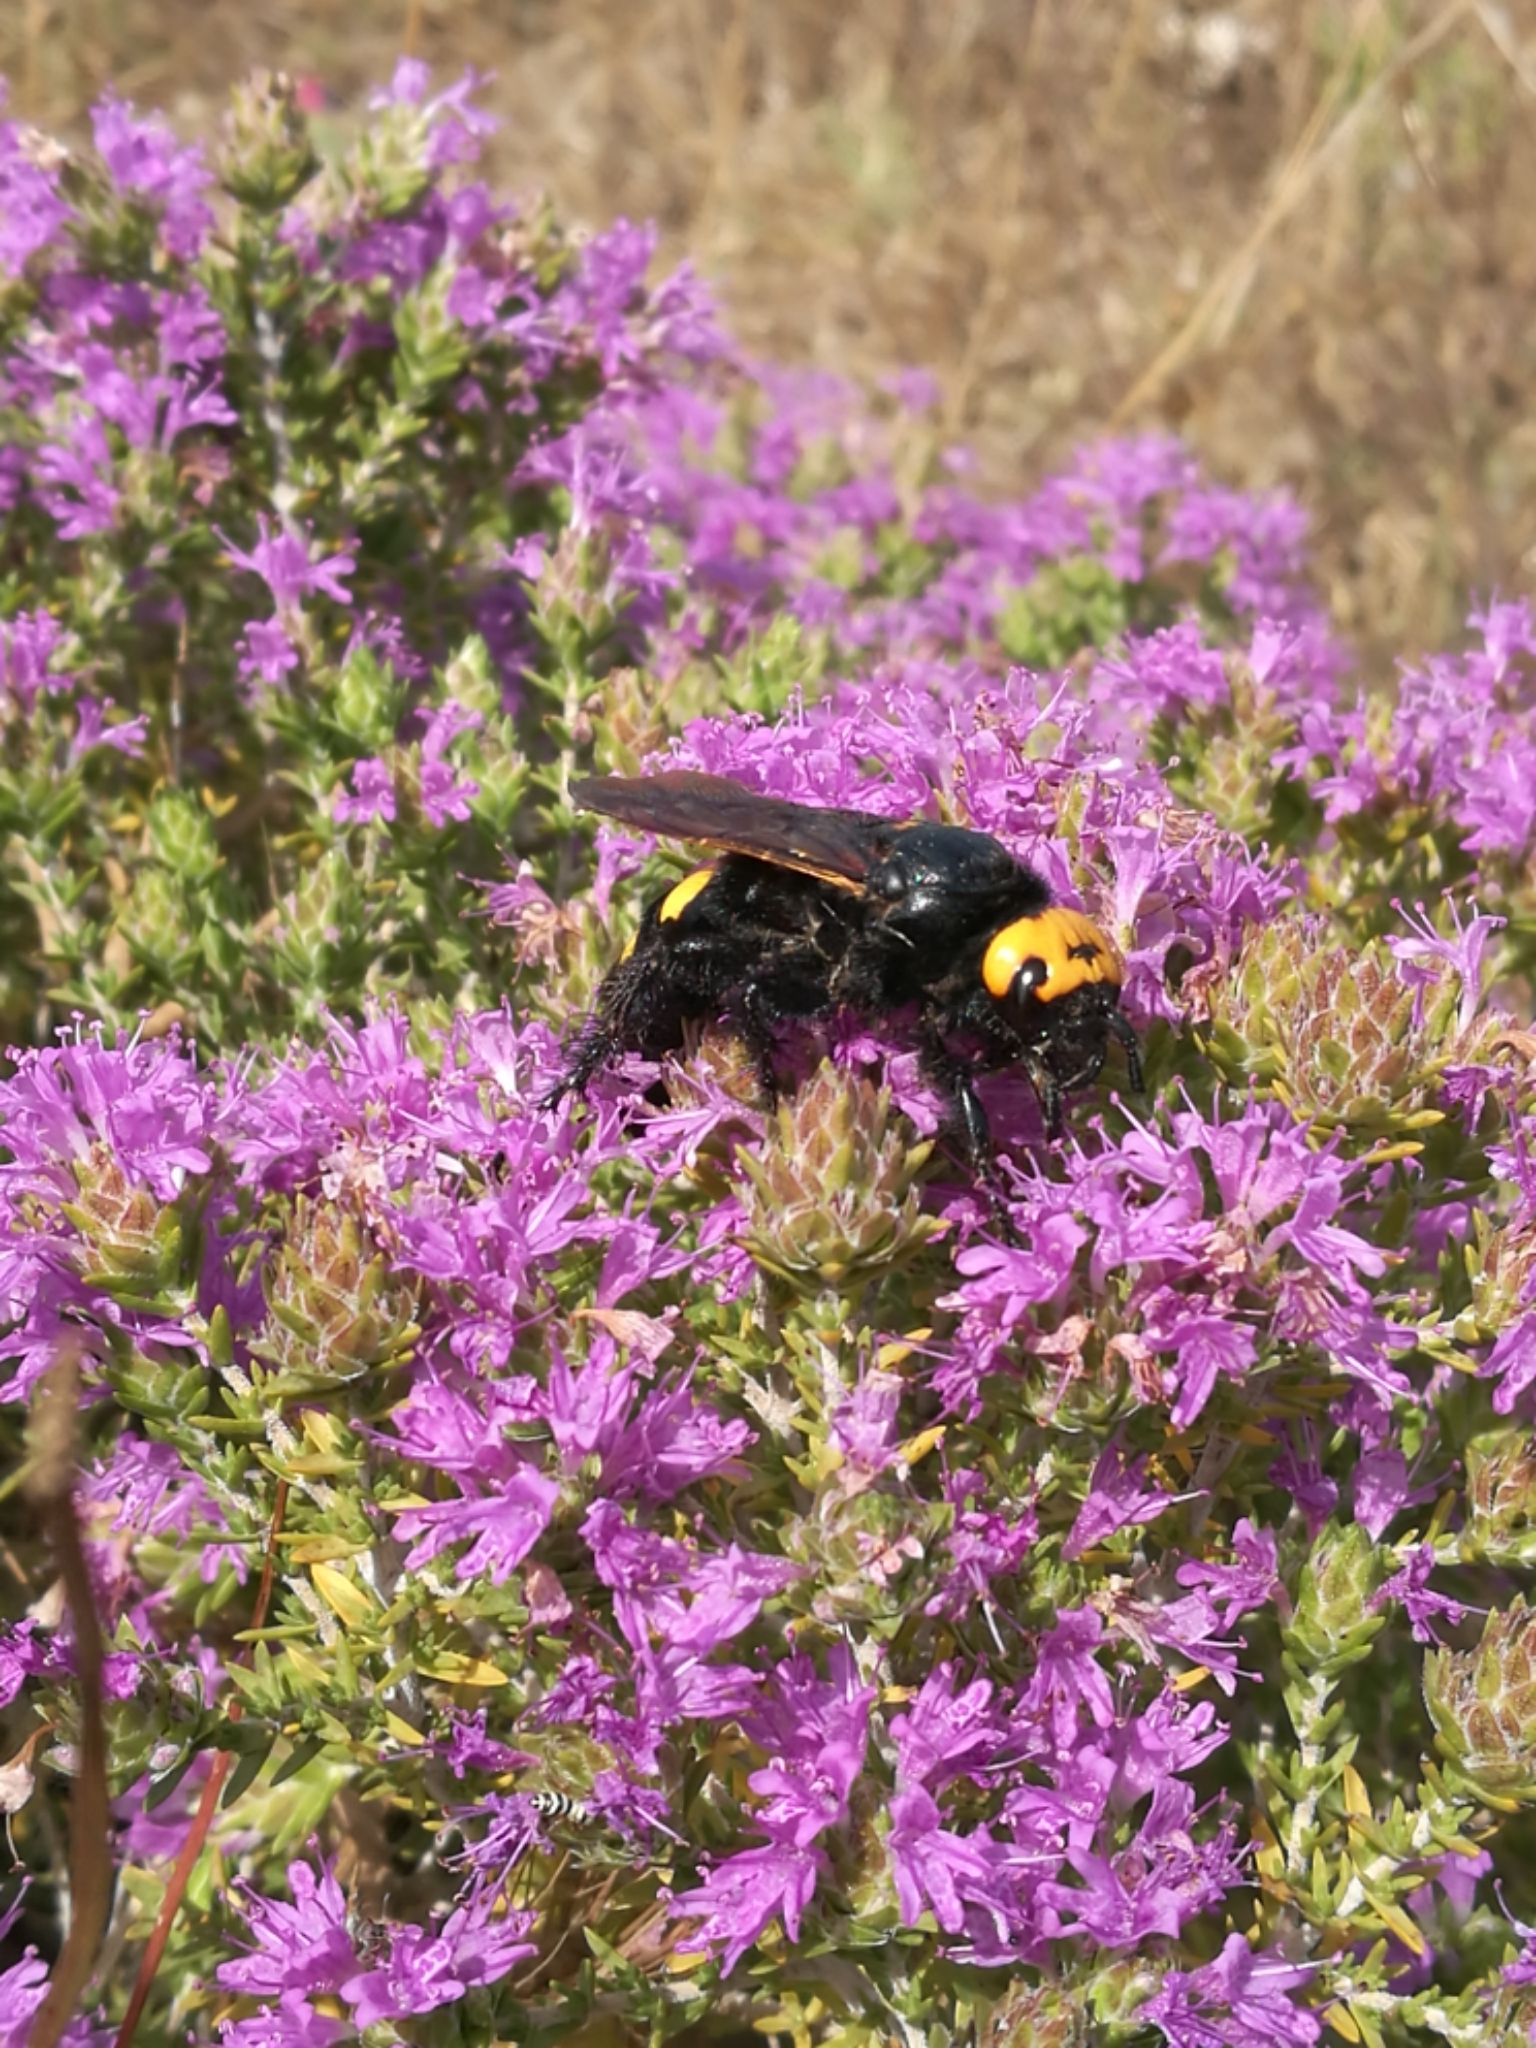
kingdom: Animalia
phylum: Arthropoda
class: Insecta
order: Hymenoptera
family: Scoliidae
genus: Megascolia
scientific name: Megascolia maculata
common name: Mammoth wasp
